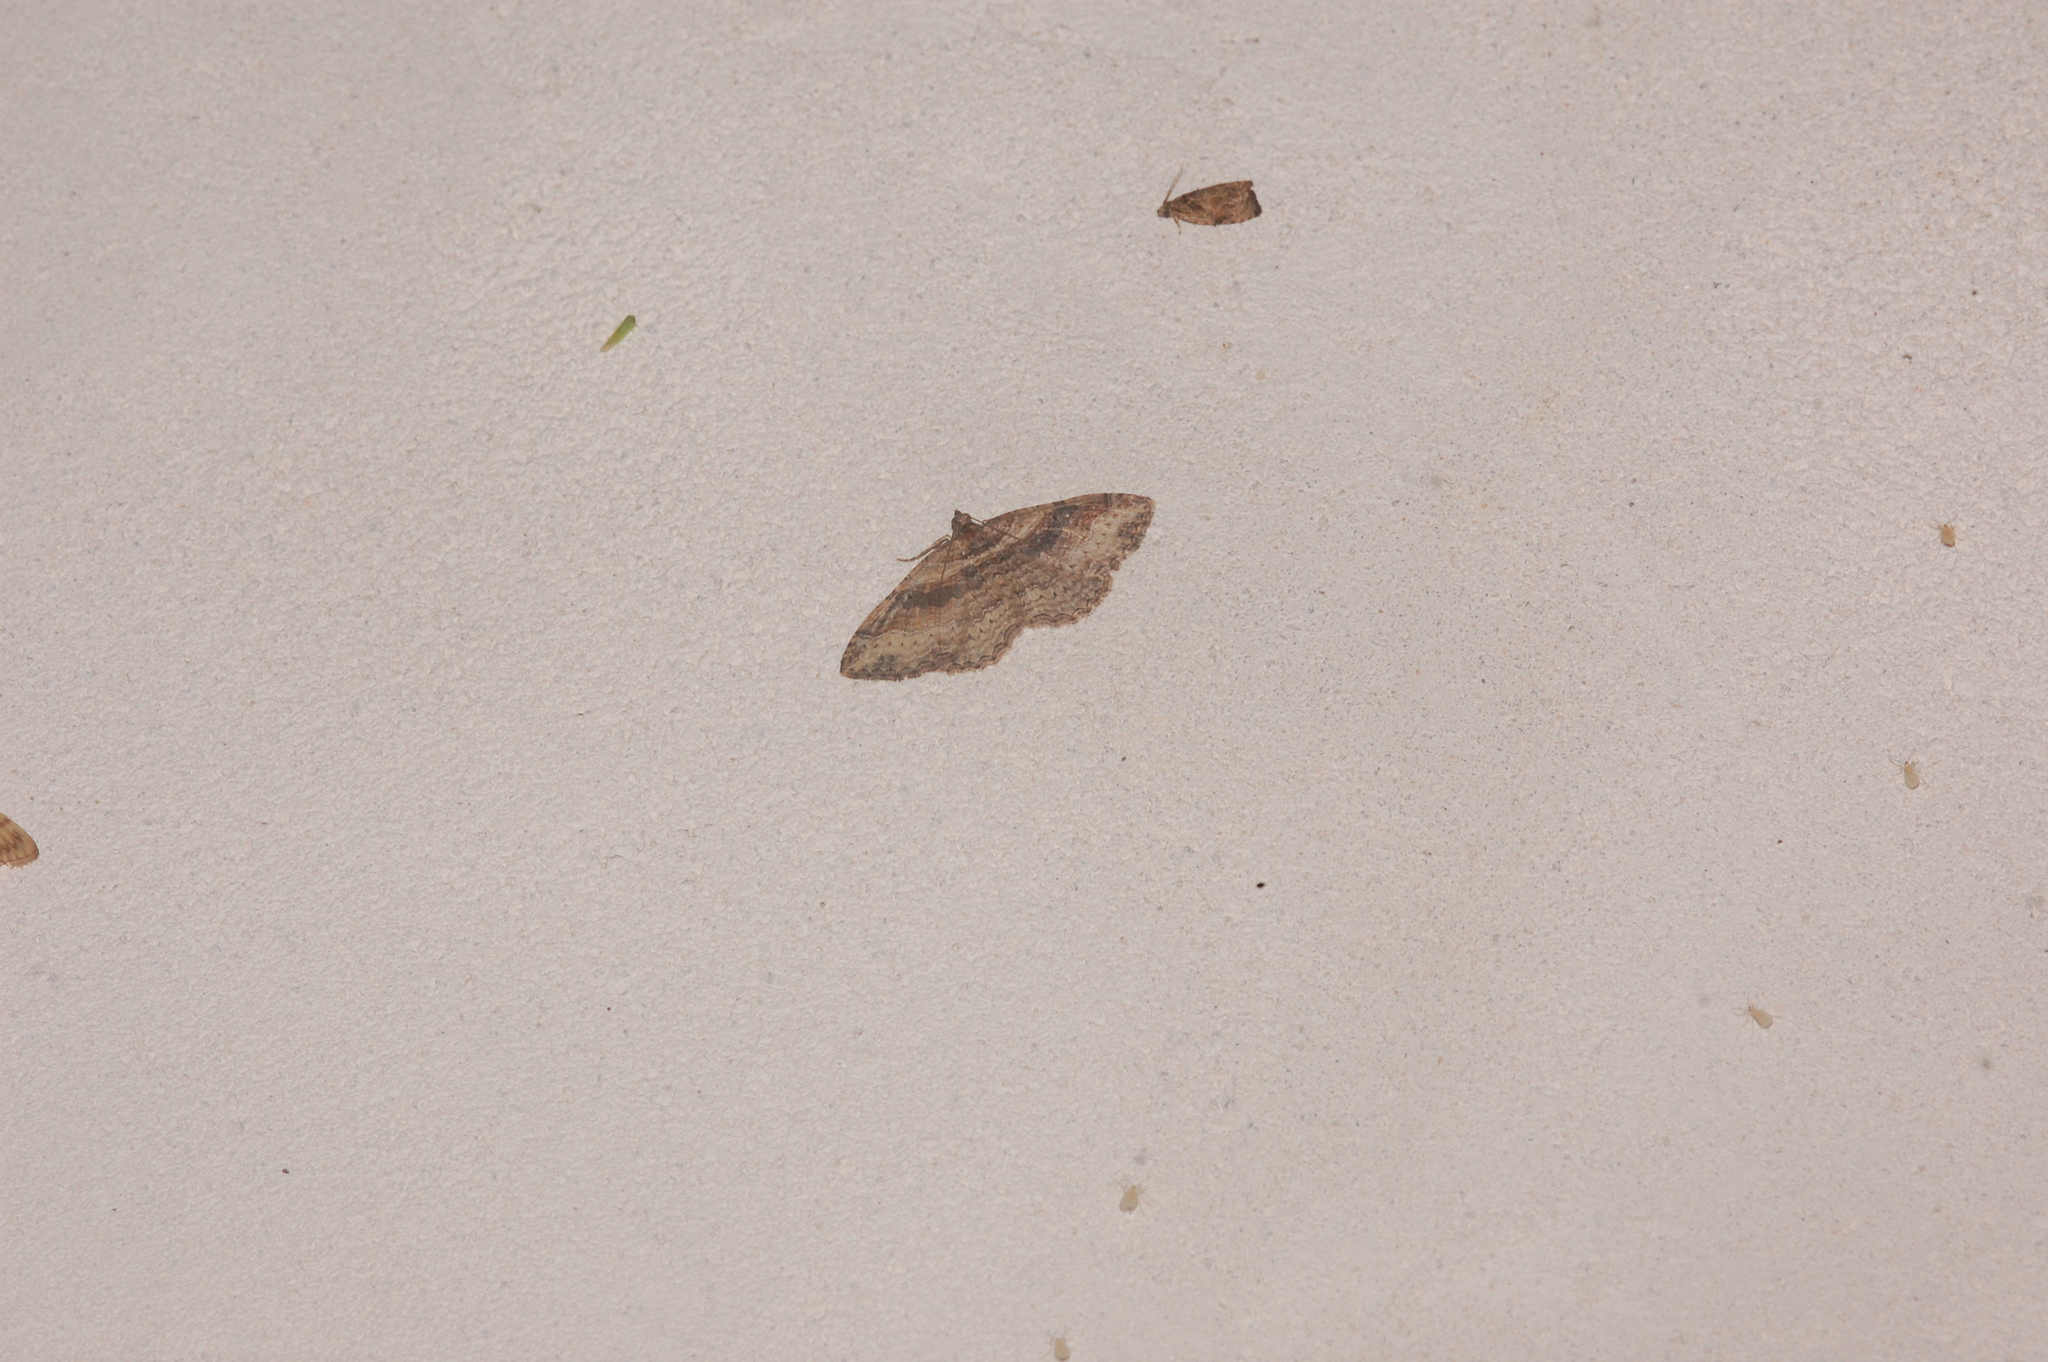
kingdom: Animalia
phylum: Arthropoda
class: Insecta
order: Lepidoptera
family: Geometridae
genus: Costaconvexa
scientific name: Costaconvexa centrostrigaria
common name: Bent-line carpet
